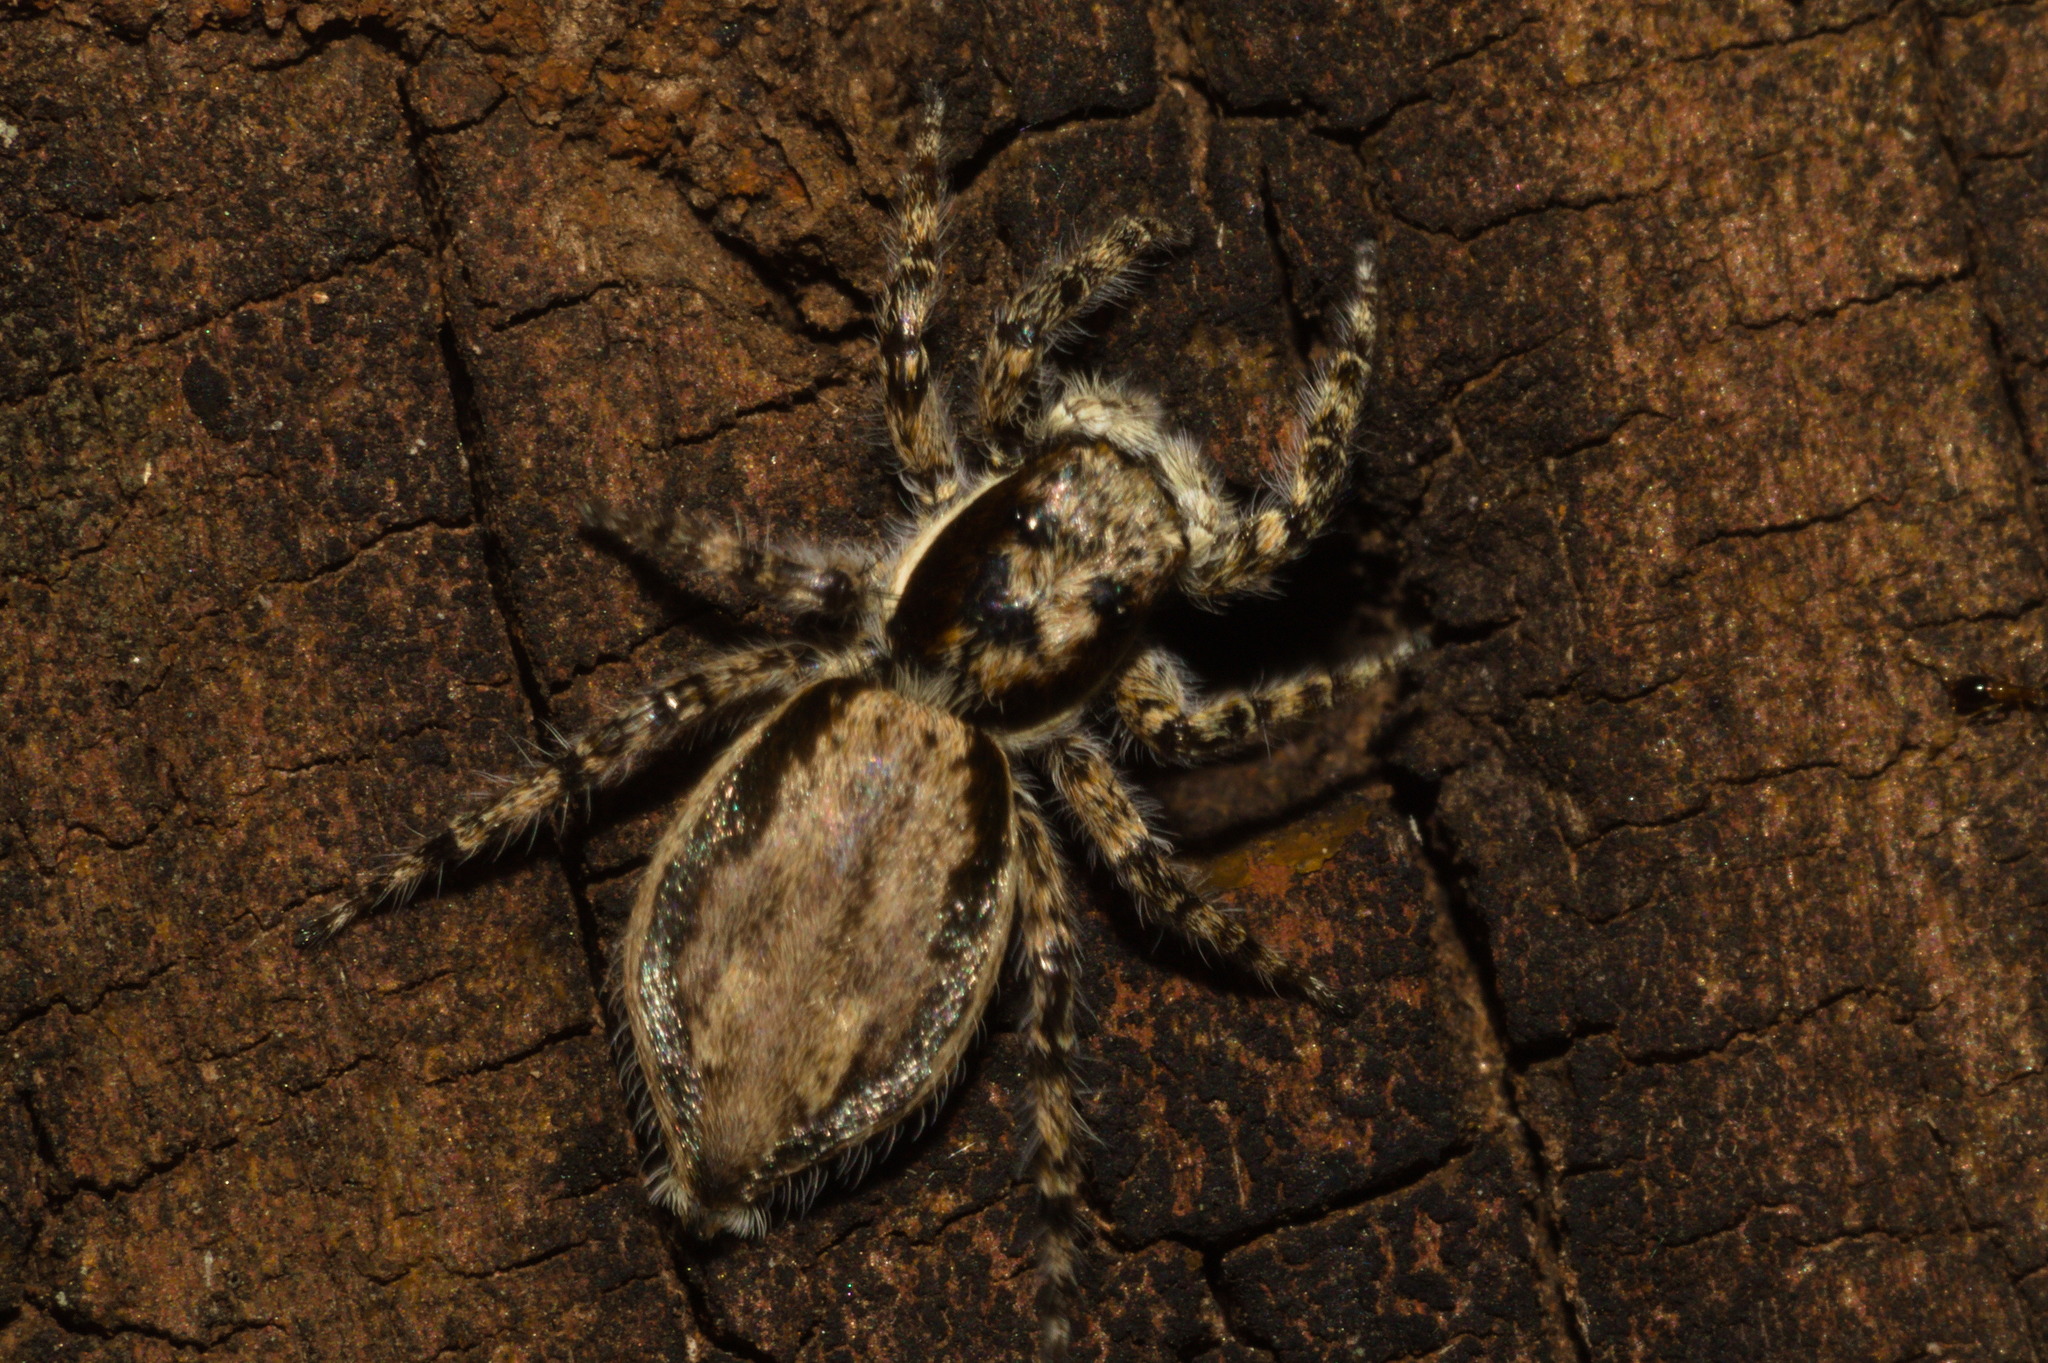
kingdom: Animalia
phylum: Arthropoda
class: Arachnida
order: Araneae
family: Salticidae
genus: Menemerus
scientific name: Menemerus bivittatus
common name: Gray wall jumper
